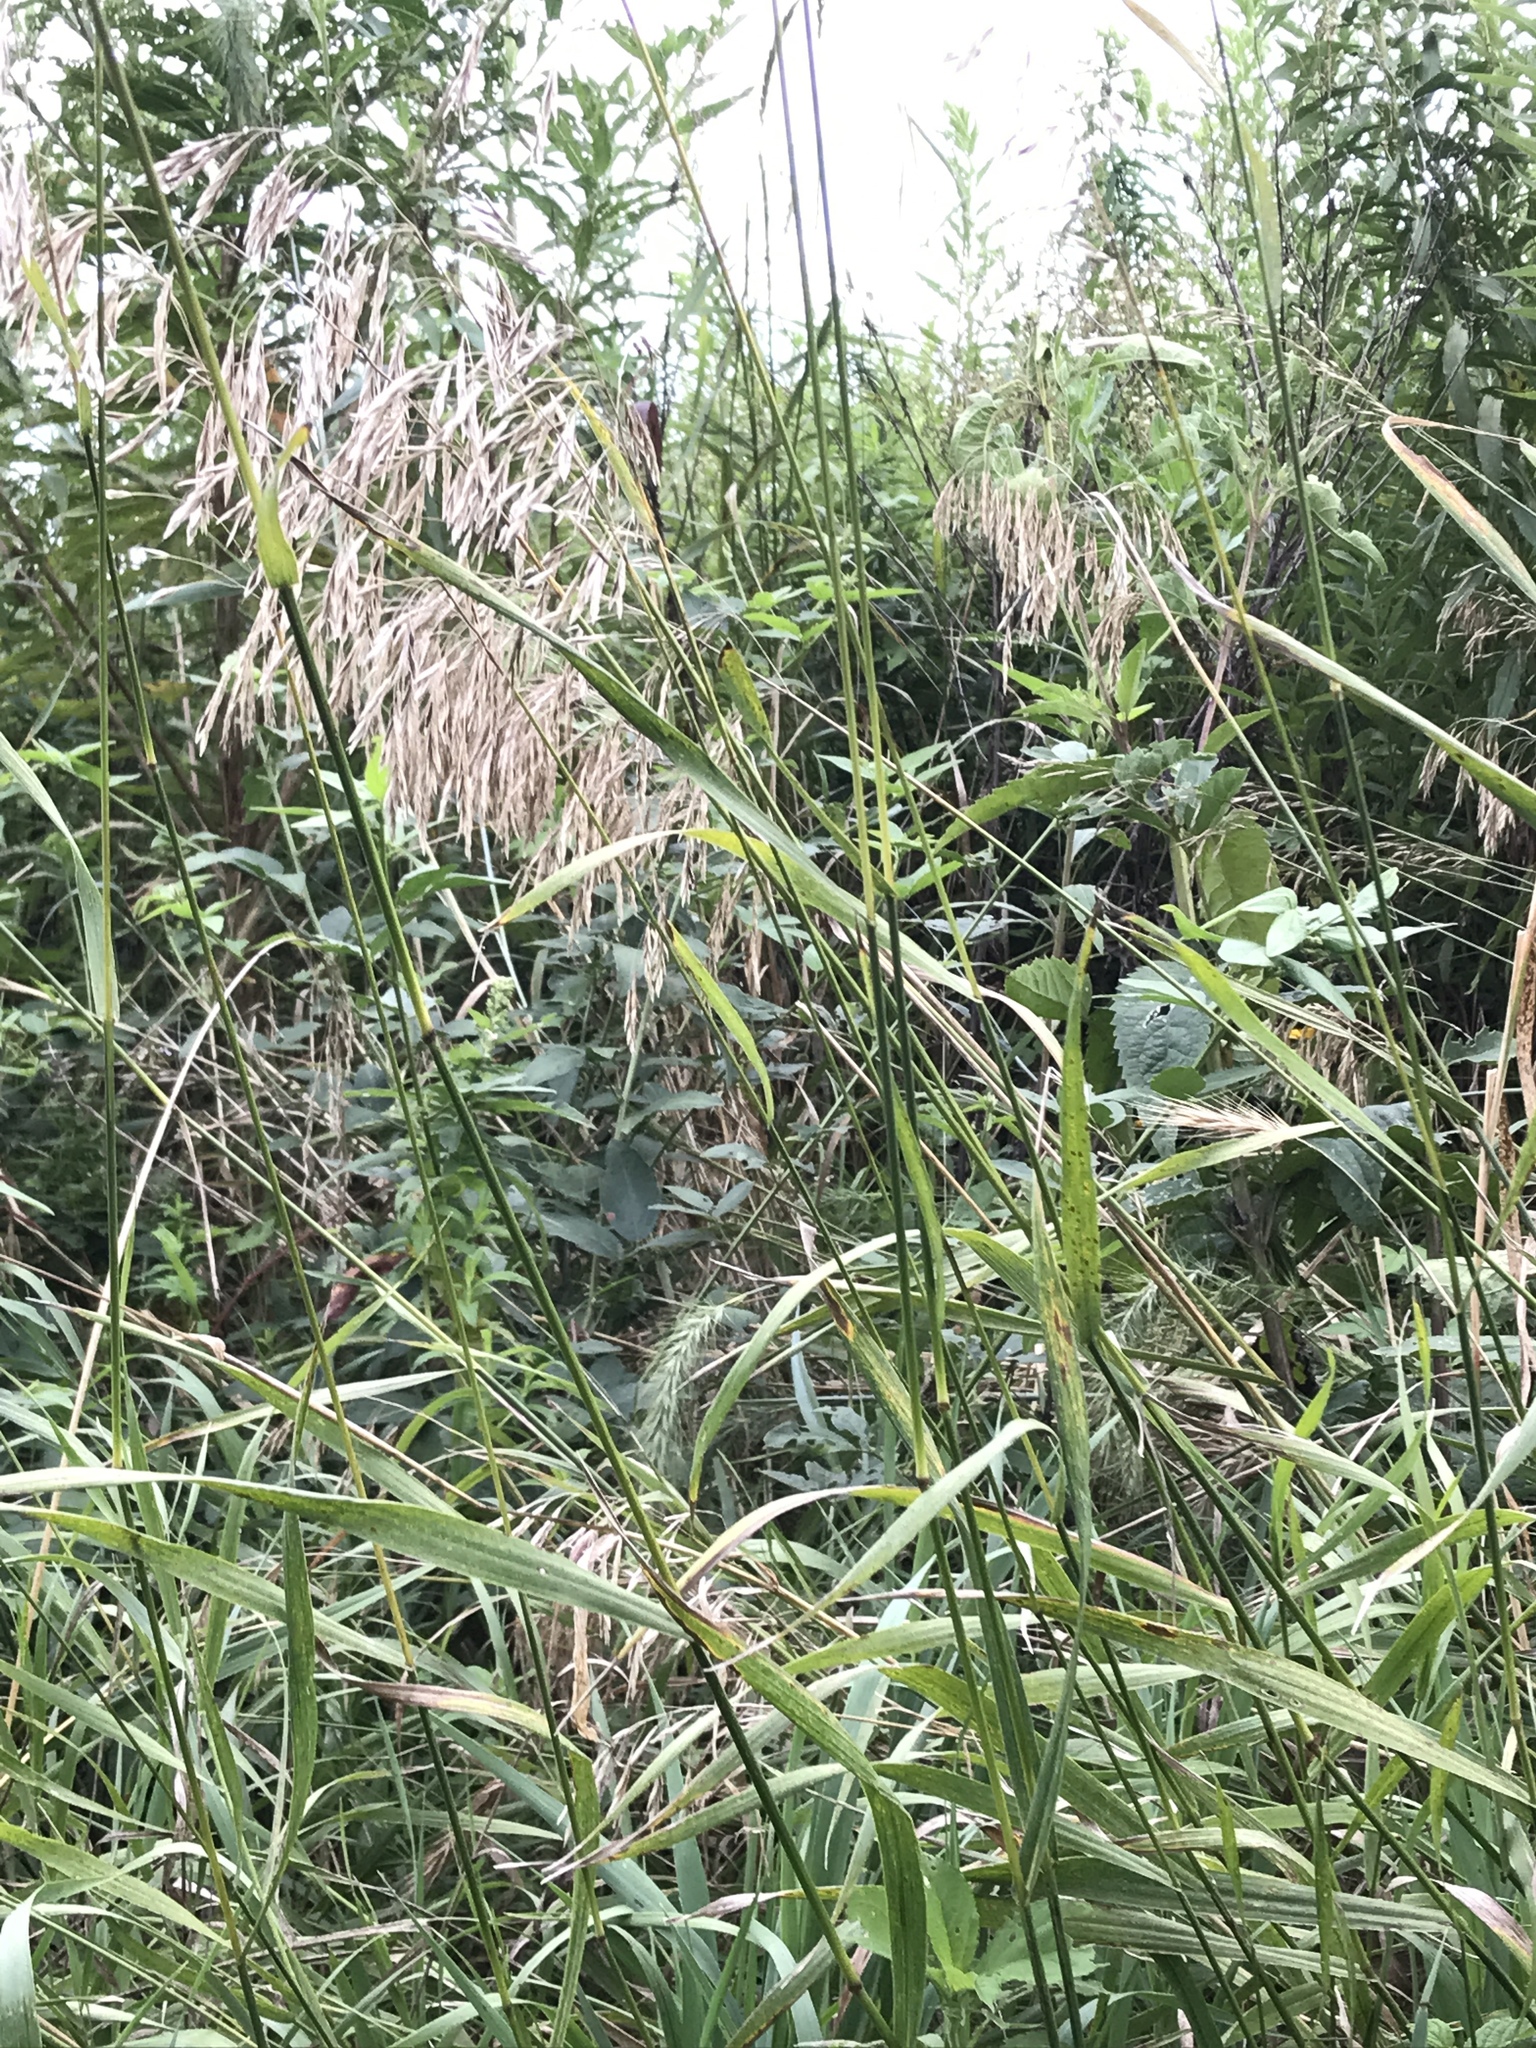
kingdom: Plantae
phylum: Tracheophyta
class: Liliopsida
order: Poales
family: Poaceae
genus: Bromus
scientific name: Bromus inermis
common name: Smooth brome
